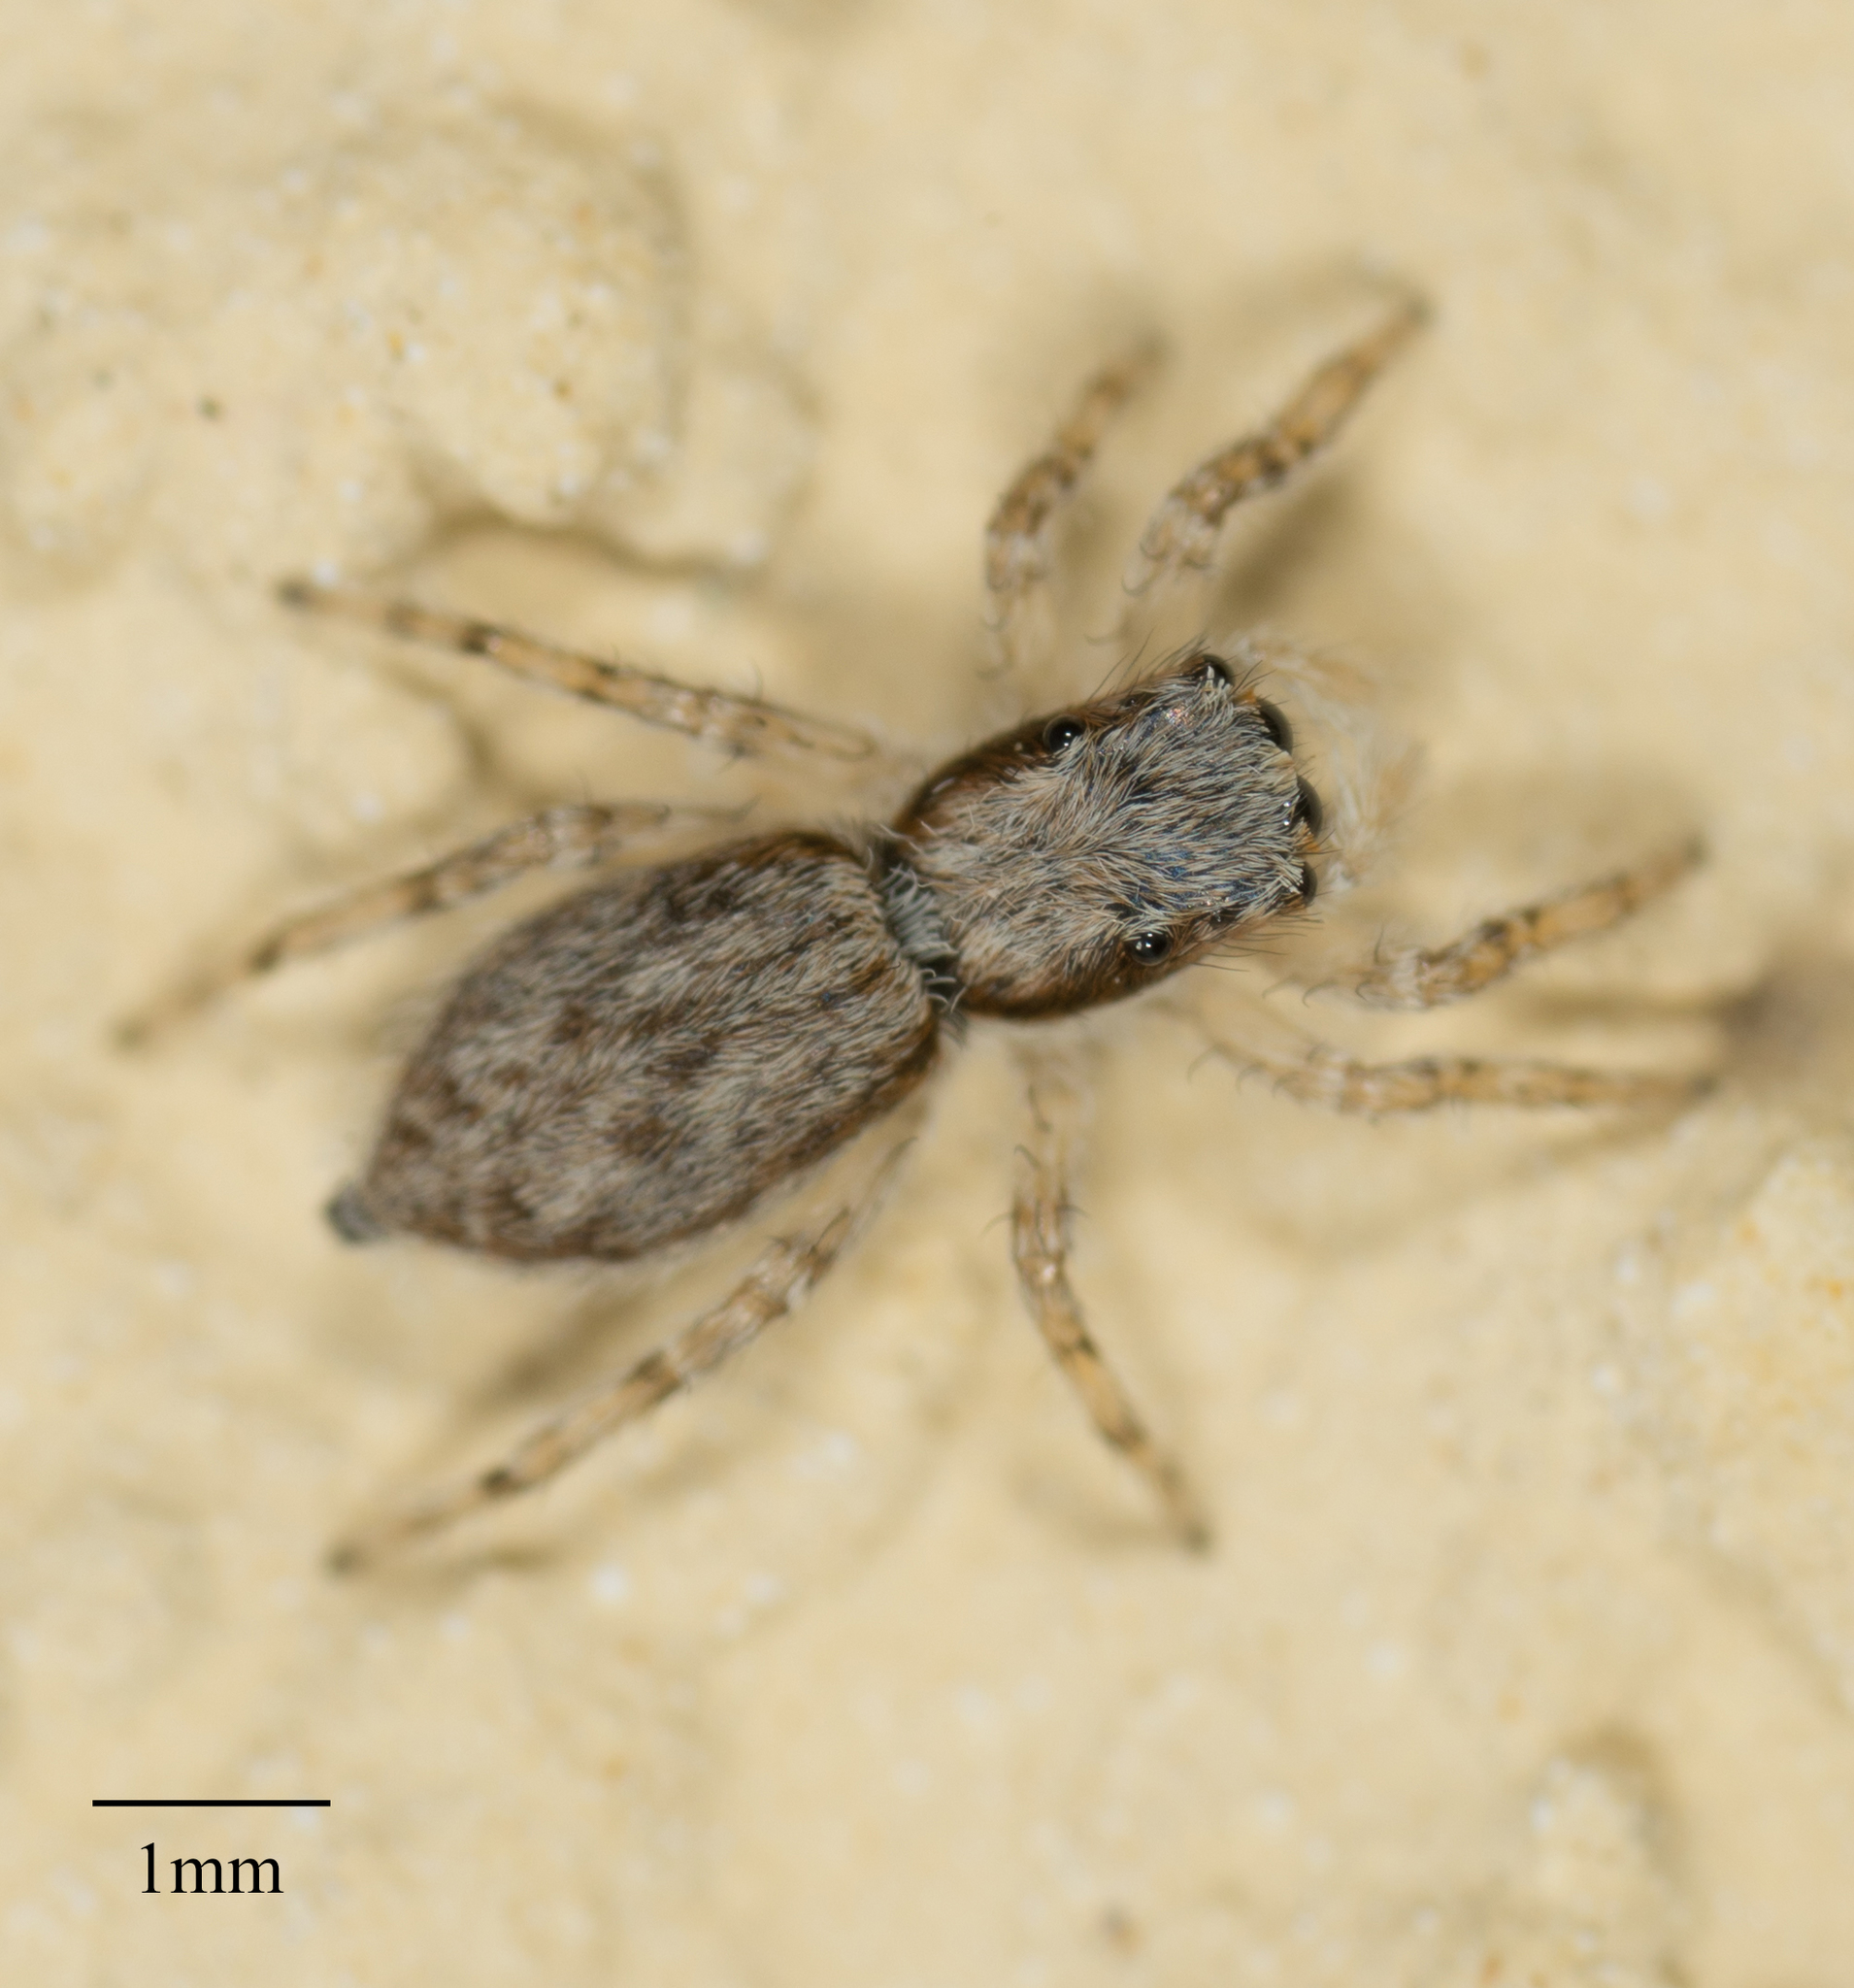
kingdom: Animalia
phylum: Arthropoda
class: Arachnida
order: Araneae
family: Salticidae
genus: Menemerus
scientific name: Menemerus bivittatus
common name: Gray wall jumper
